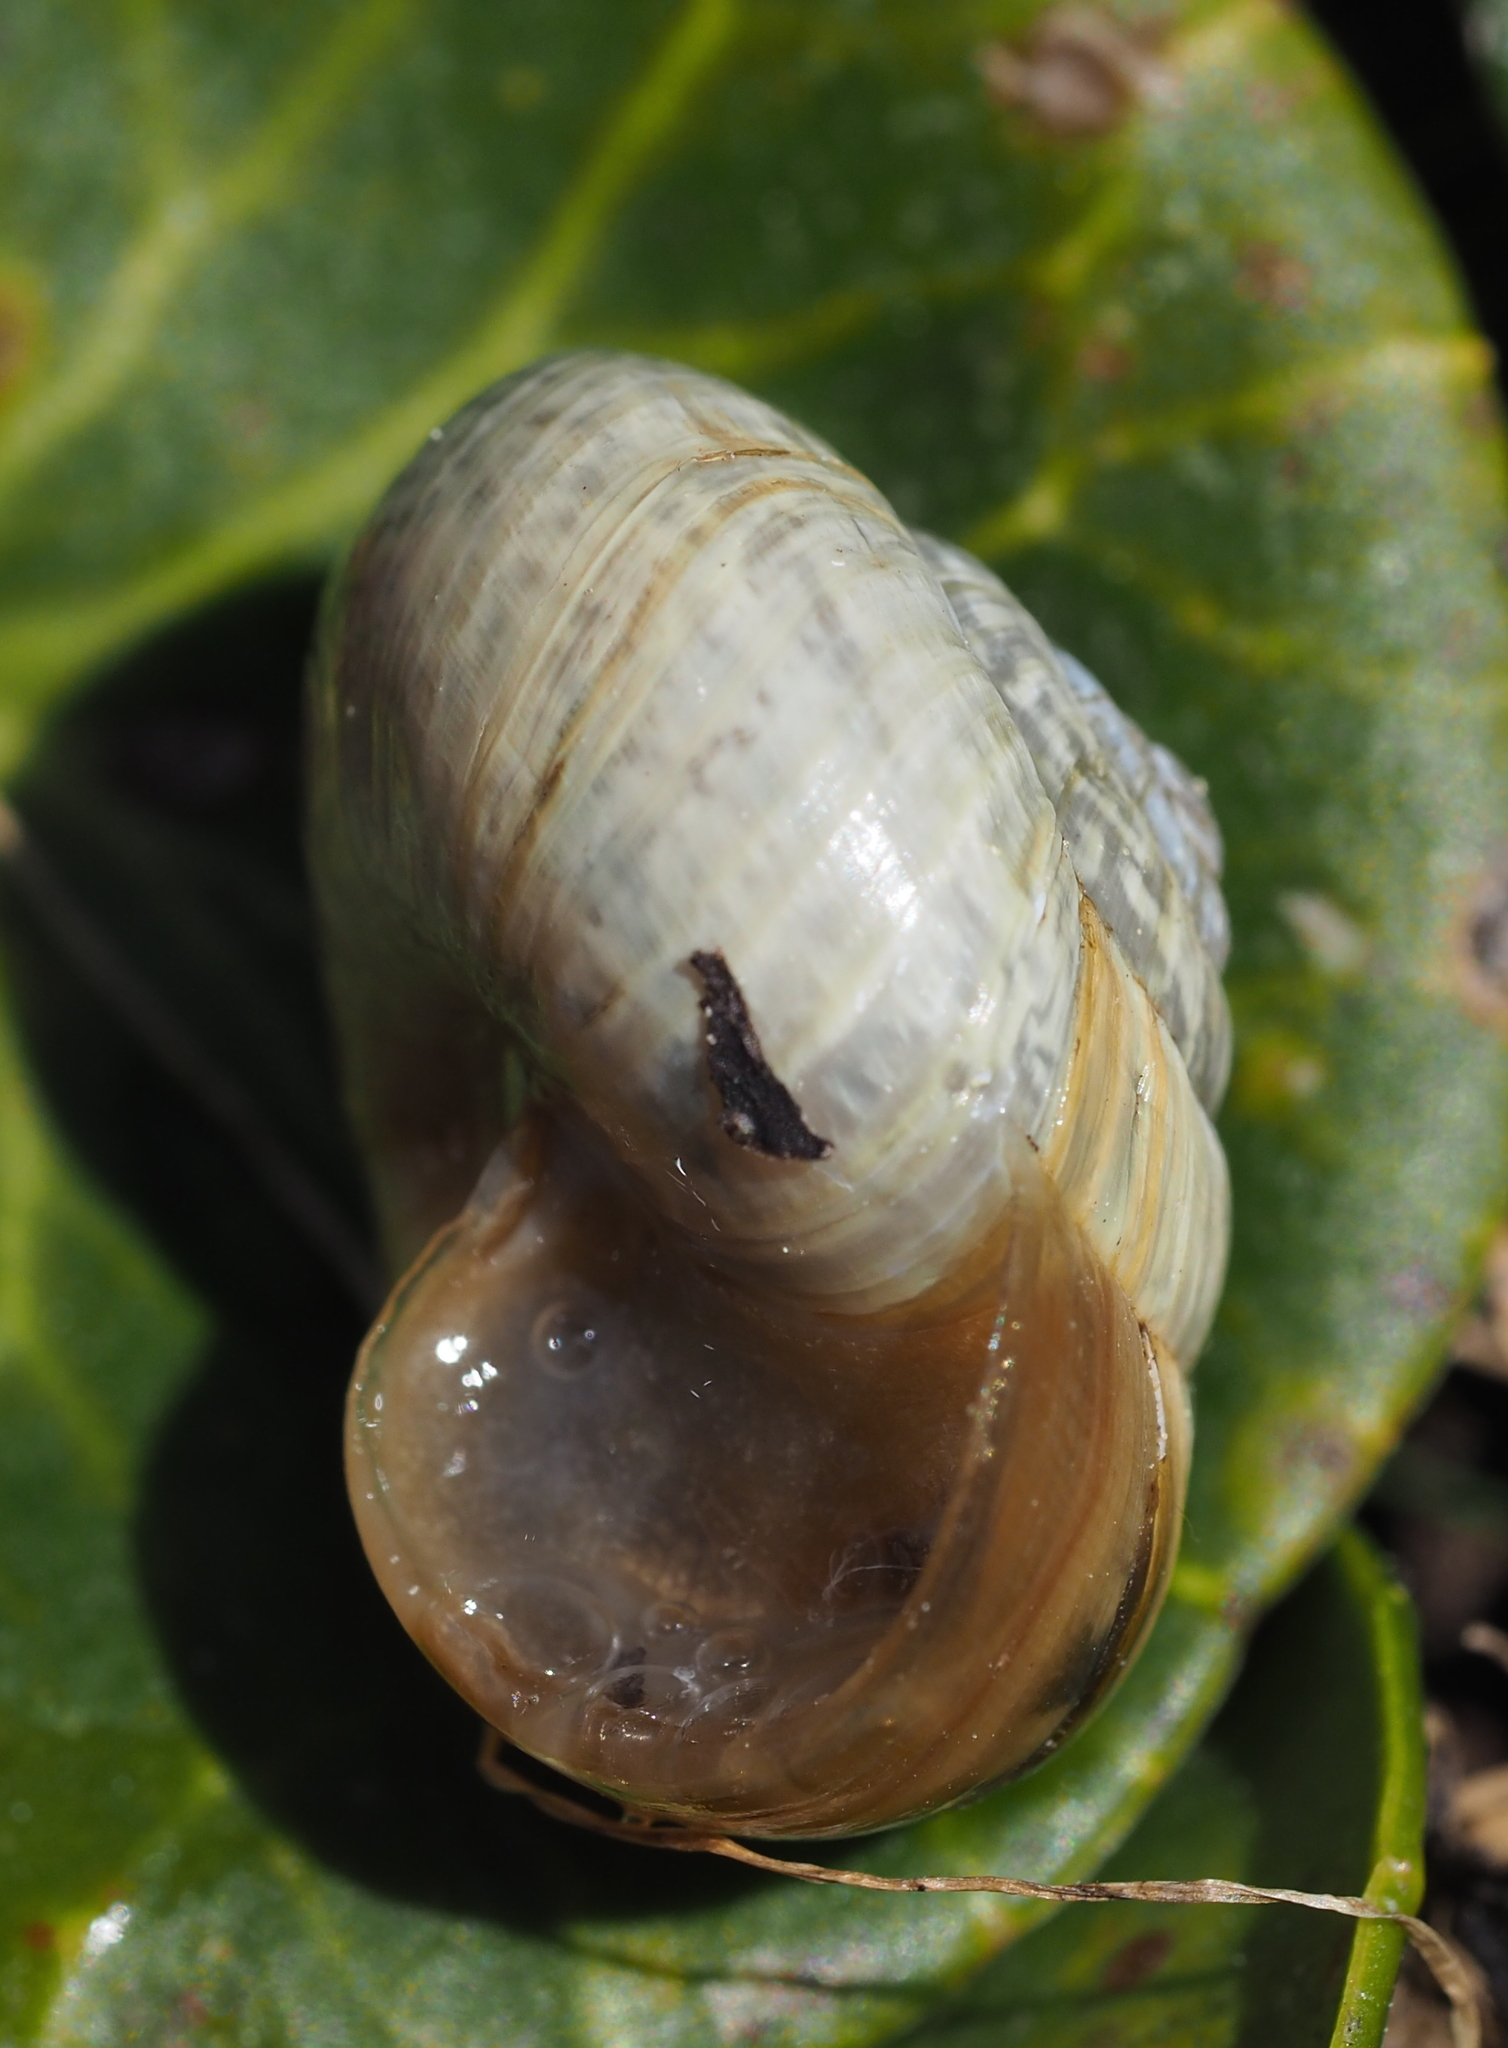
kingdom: Animalia
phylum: Mollusca
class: Gastropoda
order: Stylommatophora
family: Helicidae
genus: Arianta
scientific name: Arianta arbustorum
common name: Copse snail
